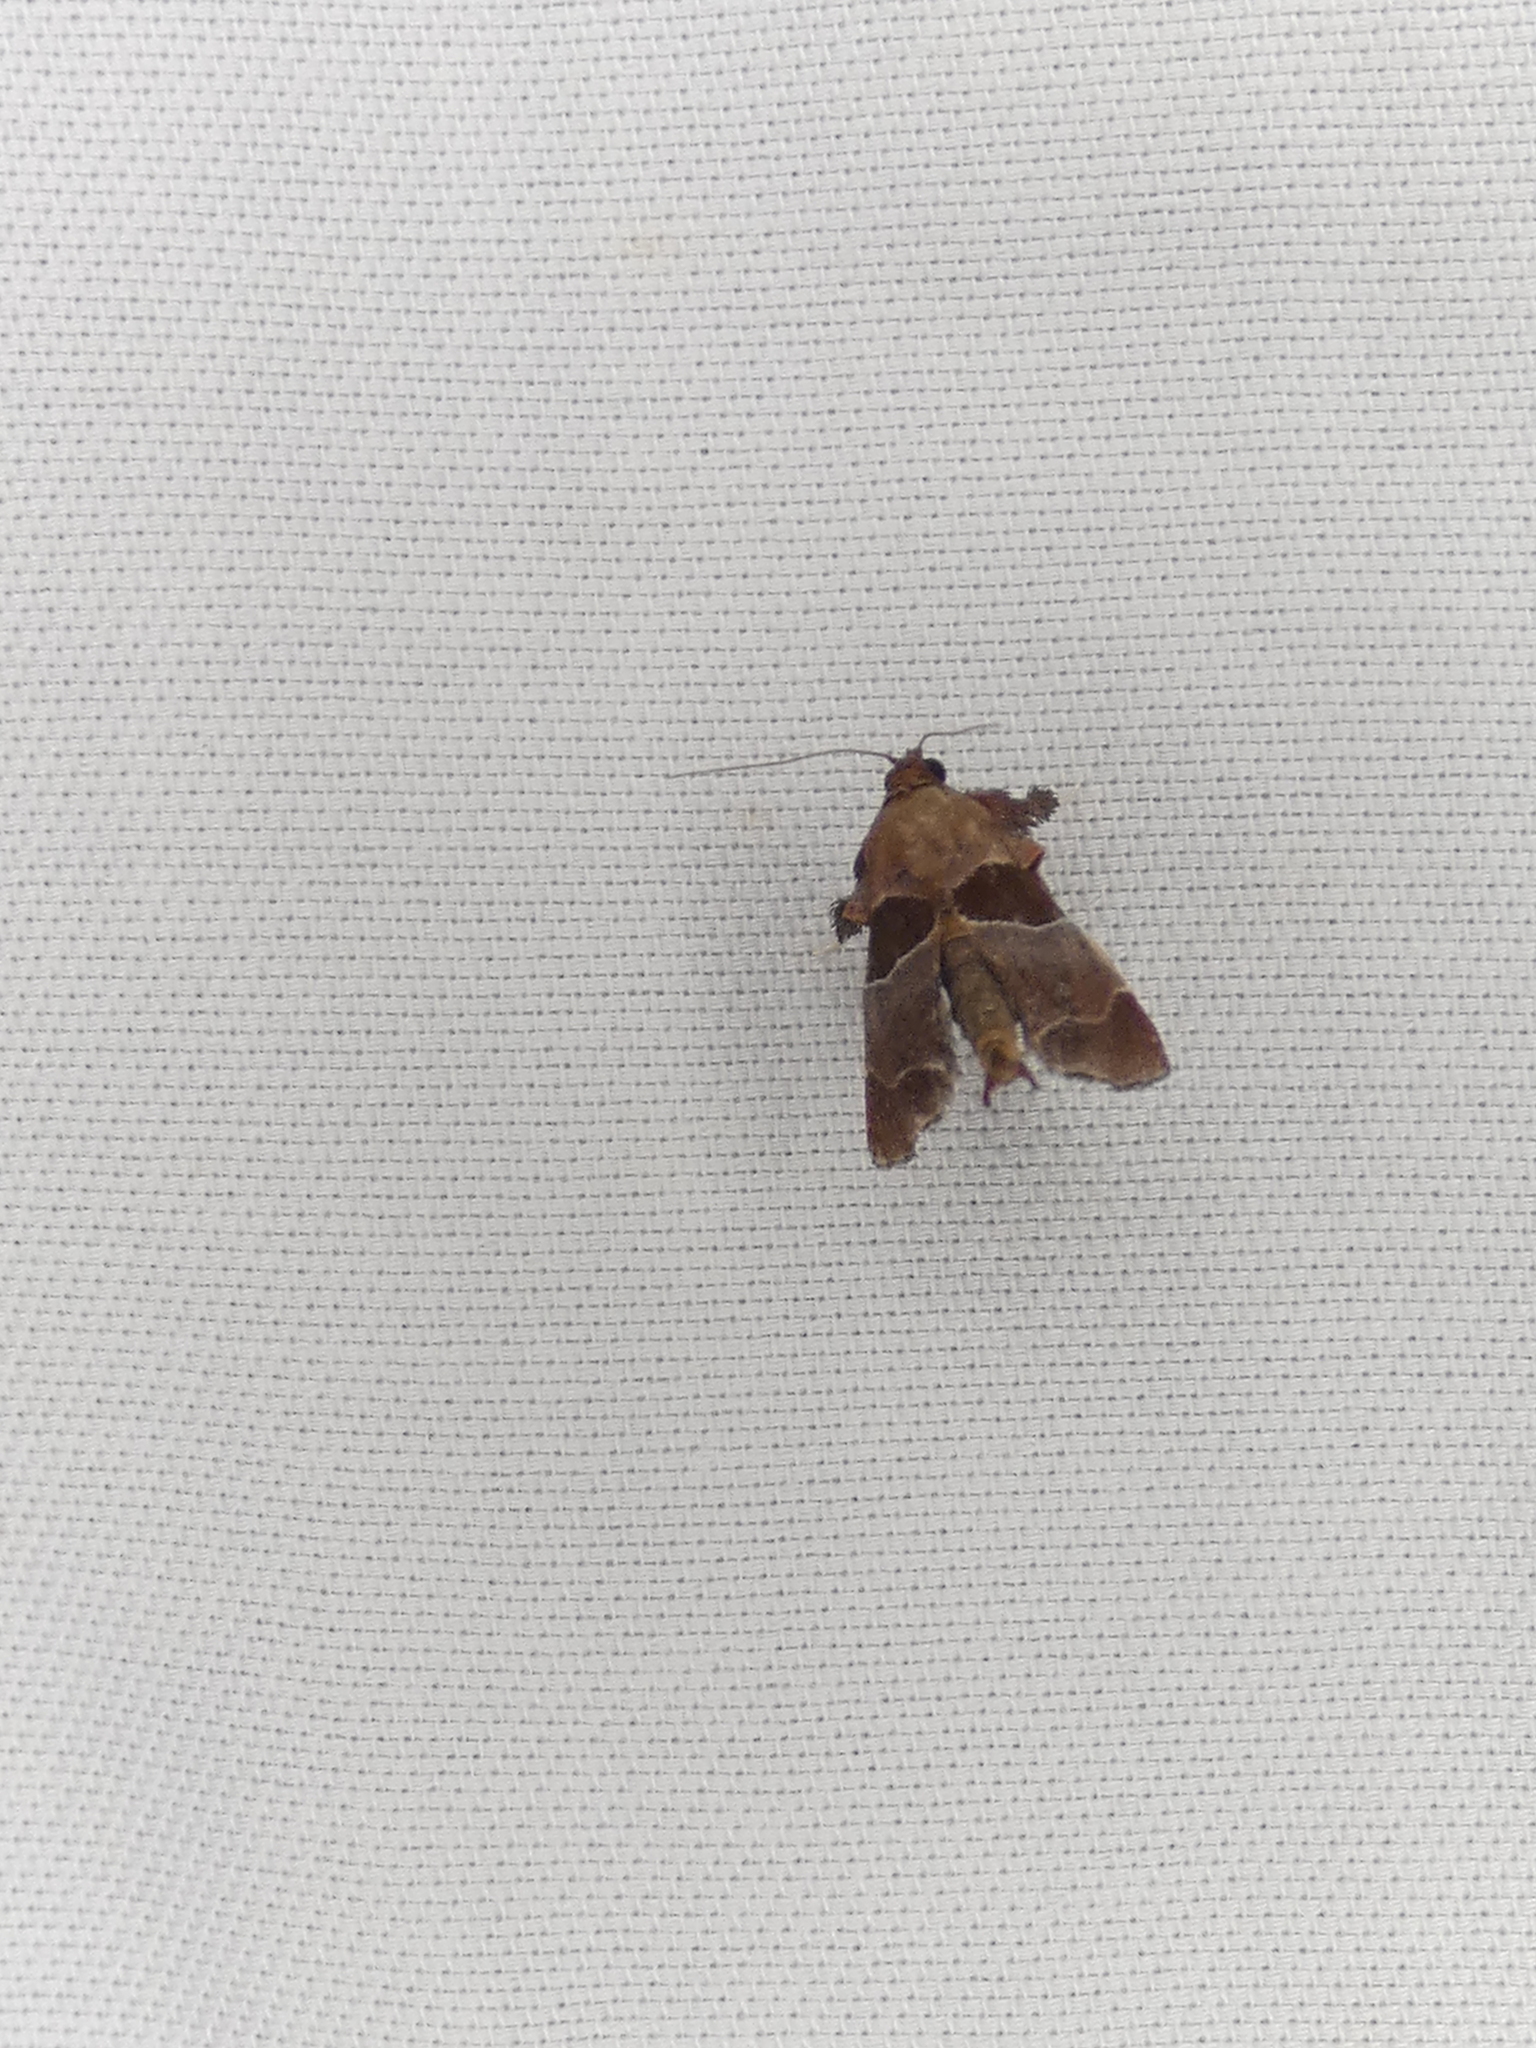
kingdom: Animalia
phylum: Arthropoda
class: Insecta
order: Lepidoptera
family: Pyralidae
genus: Tosale
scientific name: Tosale oviplagalis
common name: Dimorphic tosale moth
